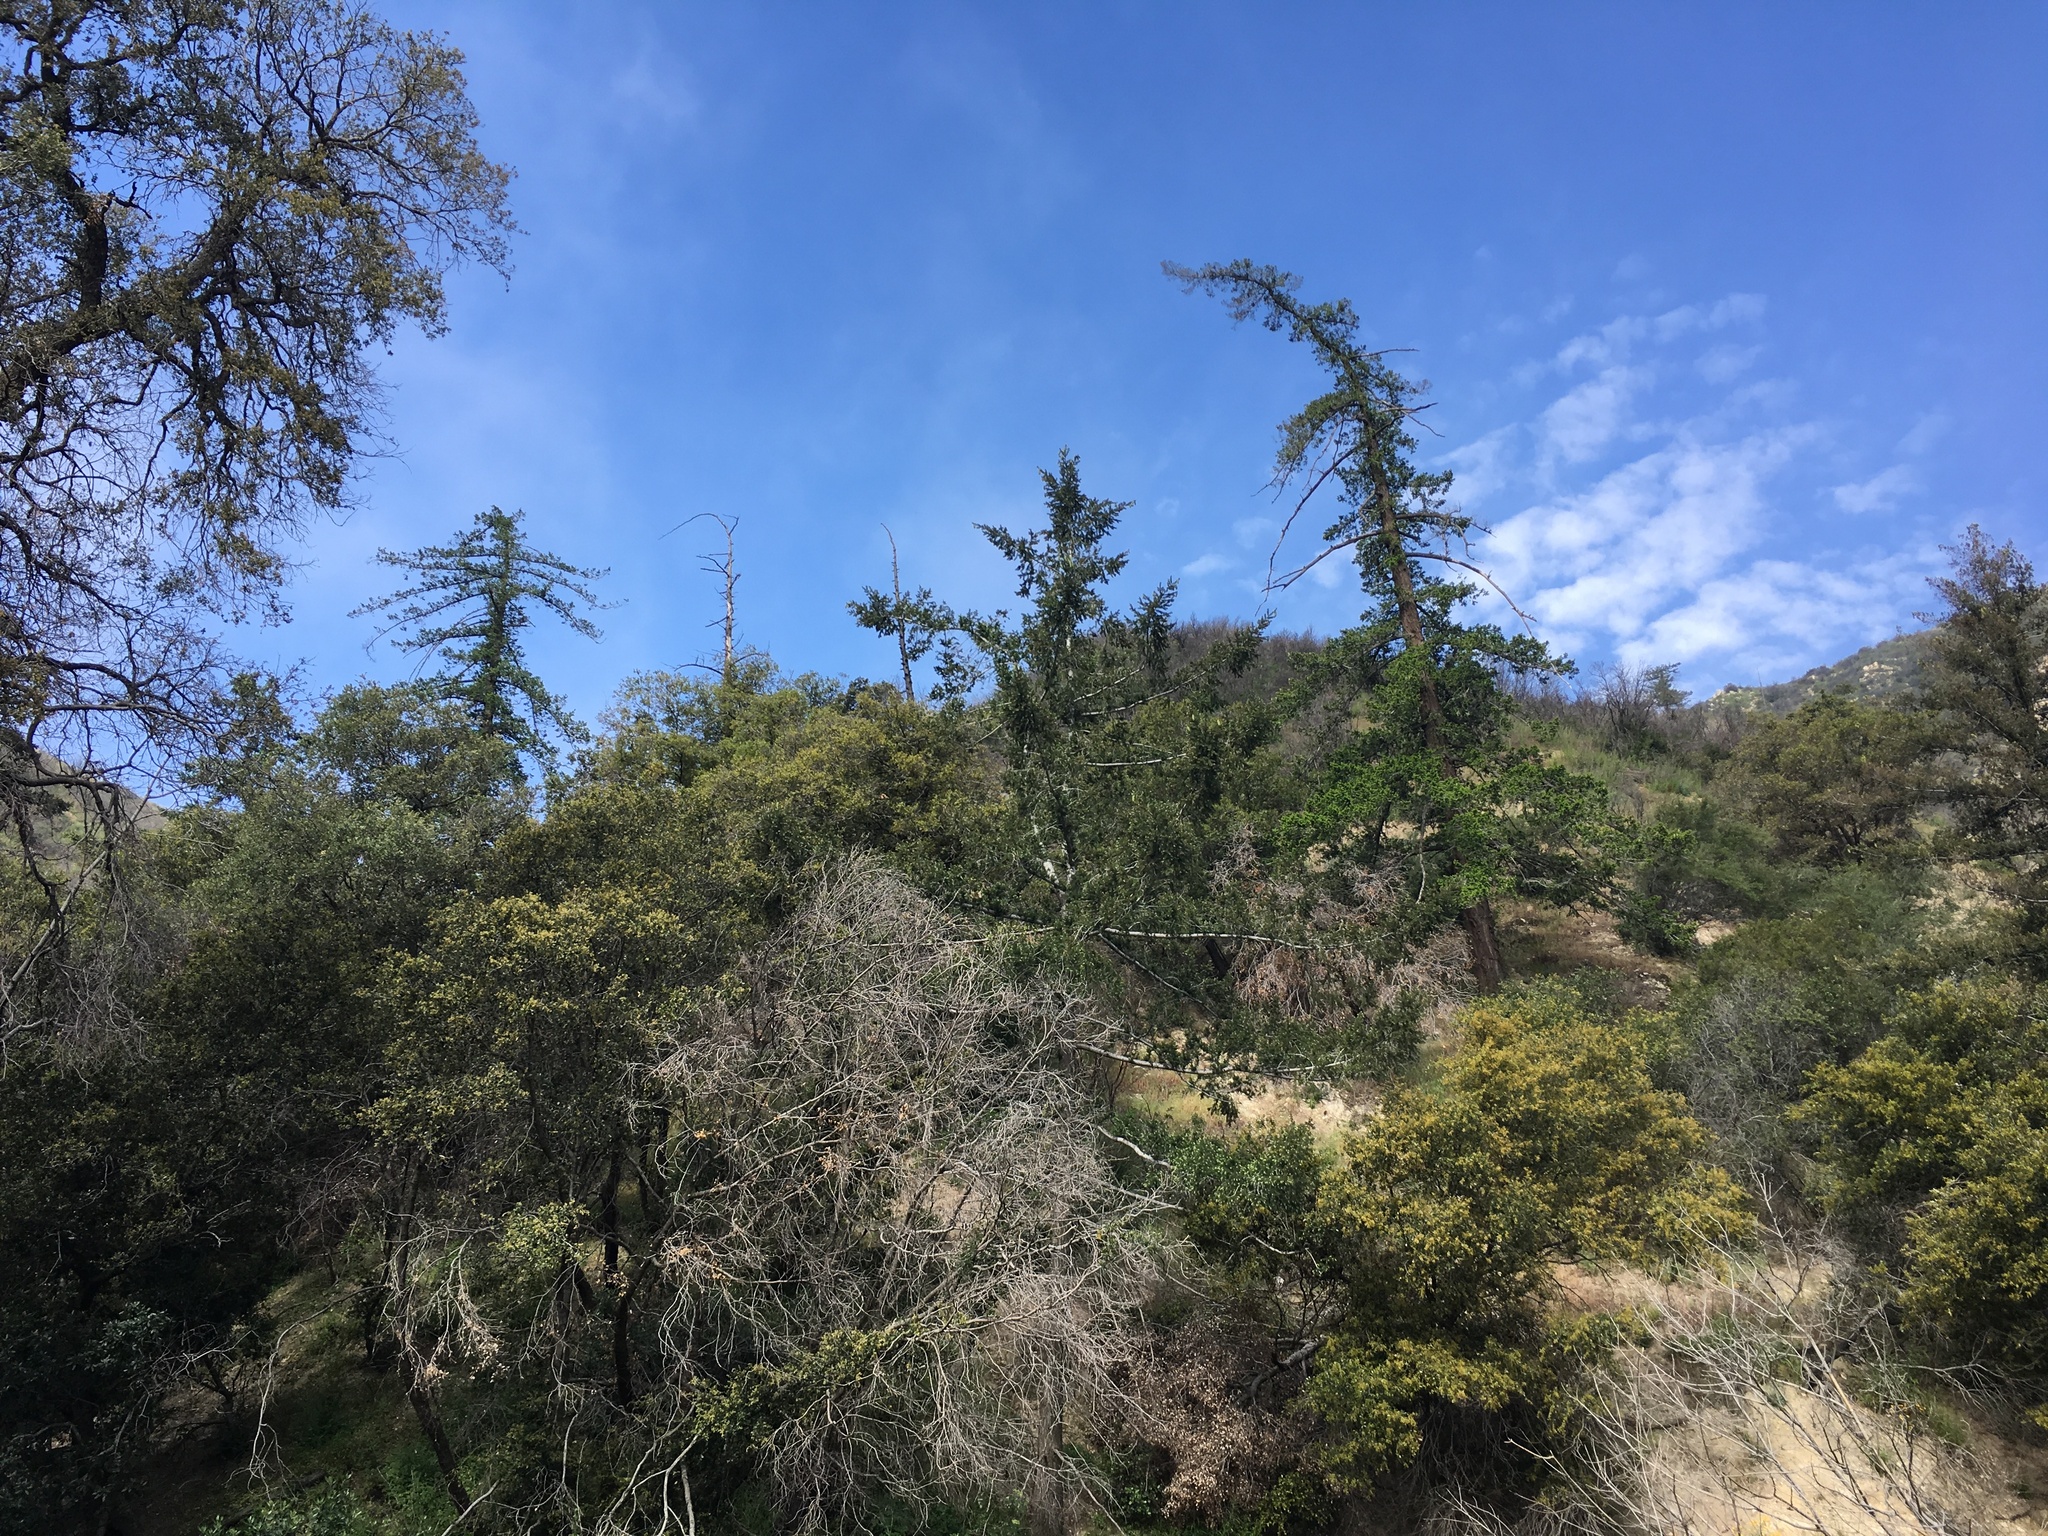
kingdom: Plantae
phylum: Tracheophyta
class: Pinopsida
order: Pinales
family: Pinaceae
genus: Pseudotsuga
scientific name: Pseudotsuga macrocarpa
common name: Big-cone douglas-fir
